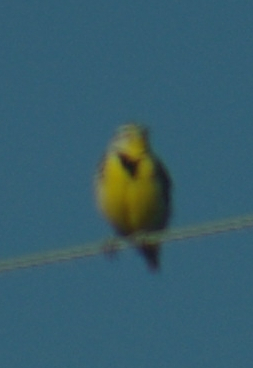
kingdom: Animalia
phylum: Chordata
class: Aves
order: Passeriformes
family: Icteridae
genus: Sturnella
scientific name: Sturnella neglecta
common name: Western meadowlark
